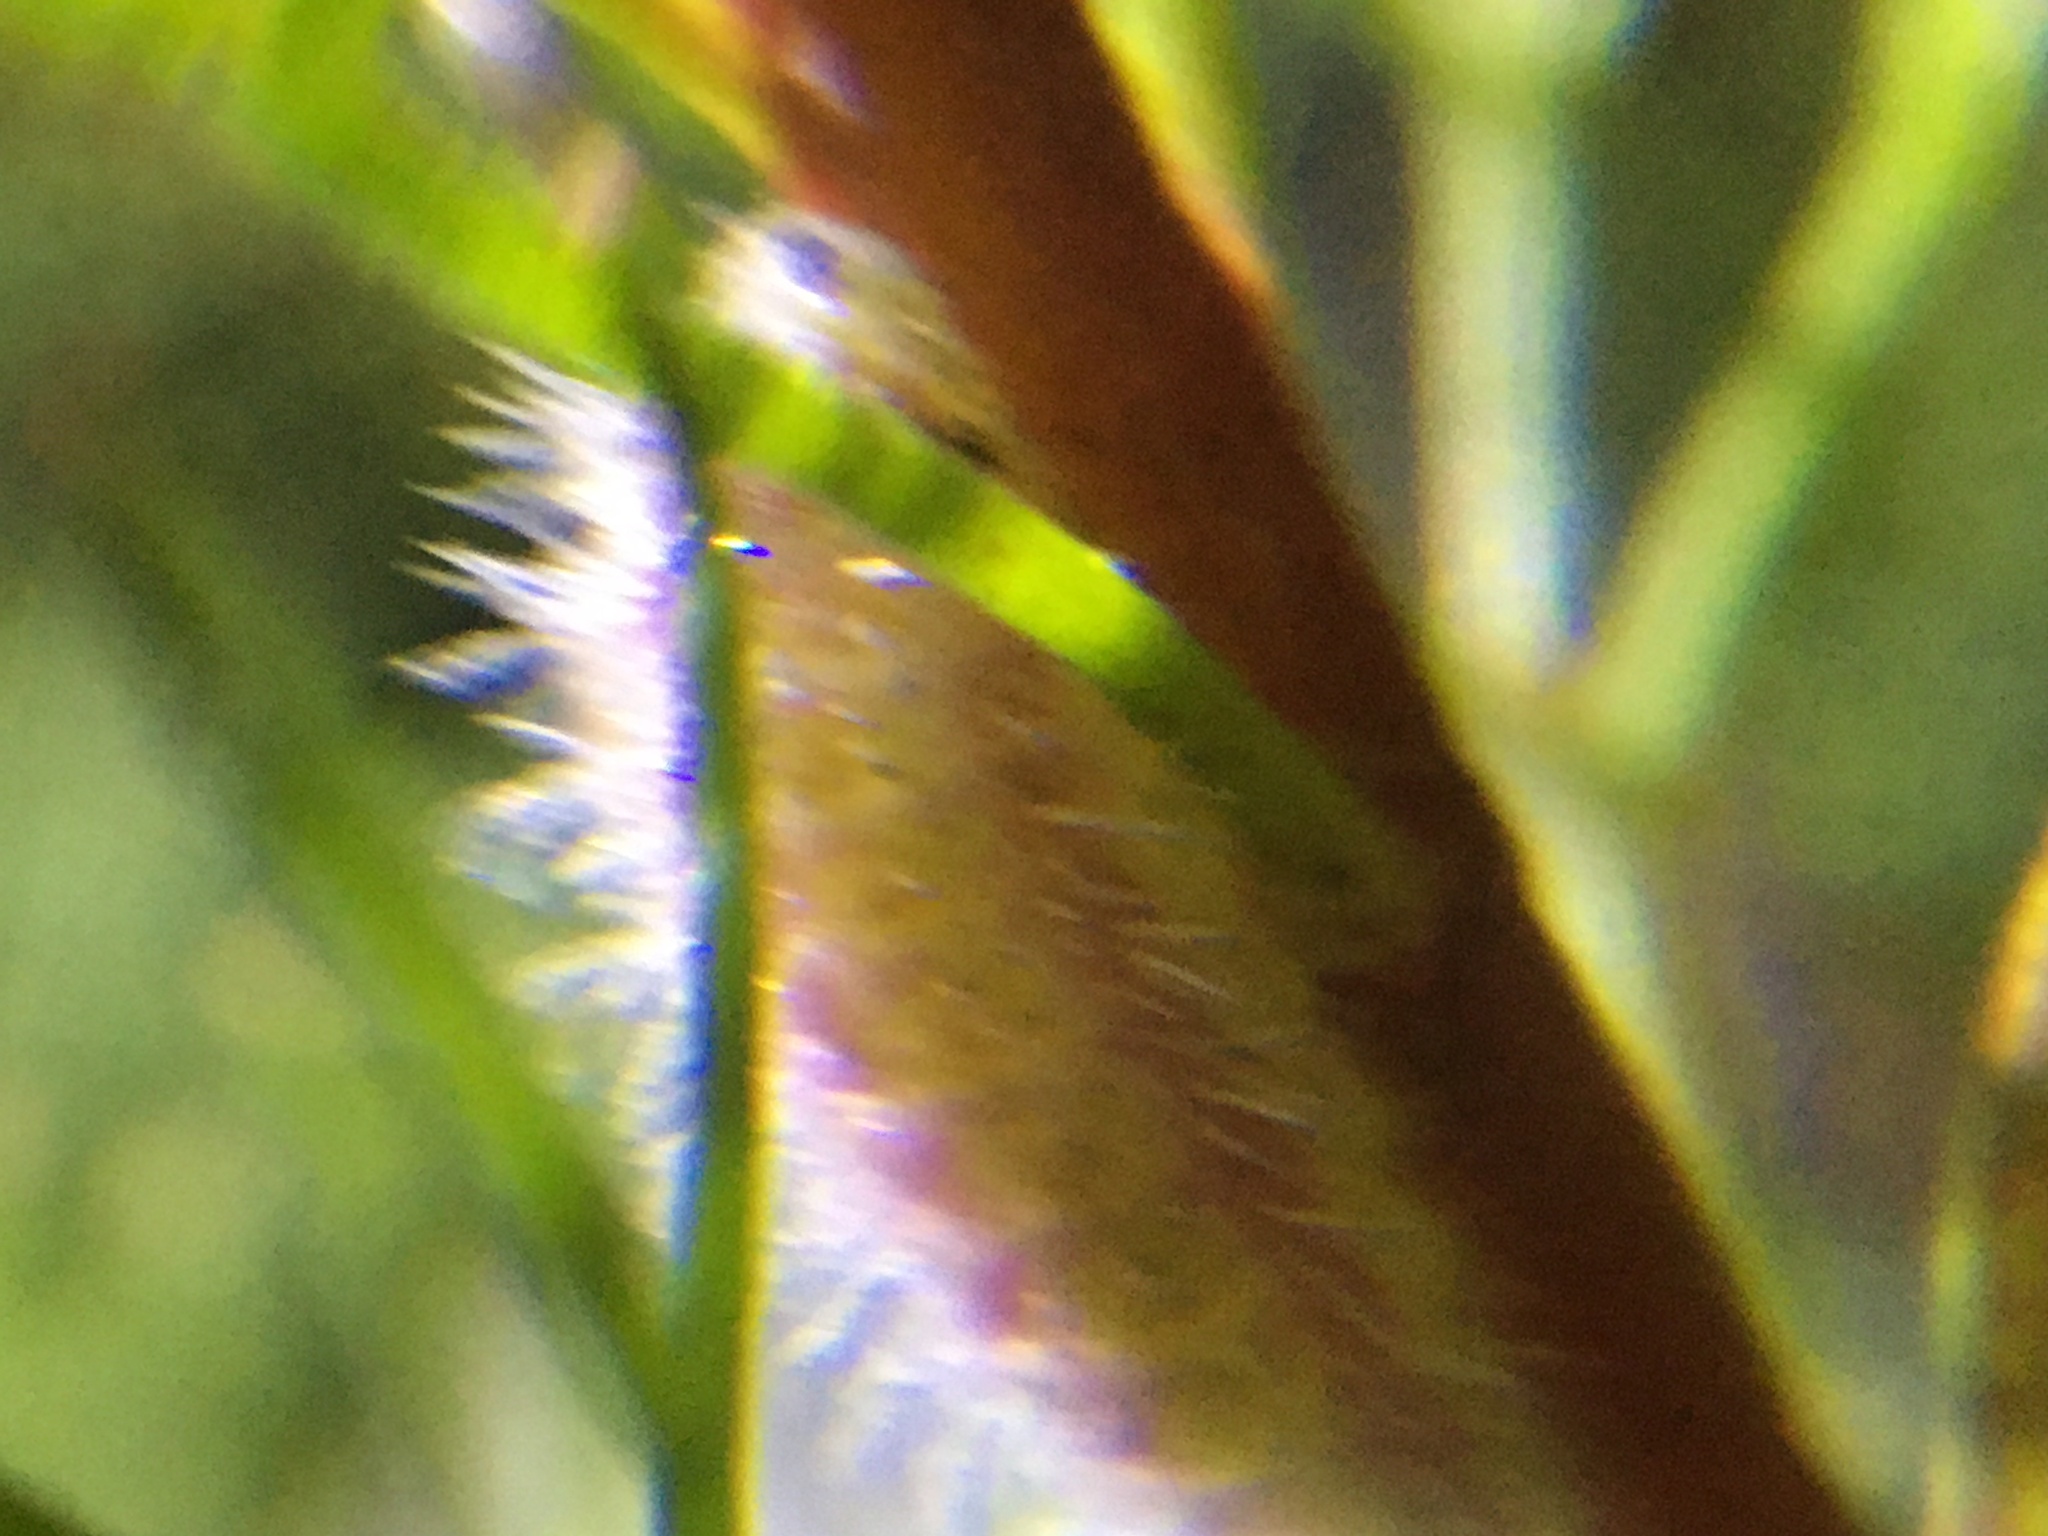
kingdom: Animalia
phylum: Arthropoda
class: Insecta
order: Lepidoptera
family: Lycaenidae
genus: Cacyreus
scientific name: Cacyreus
